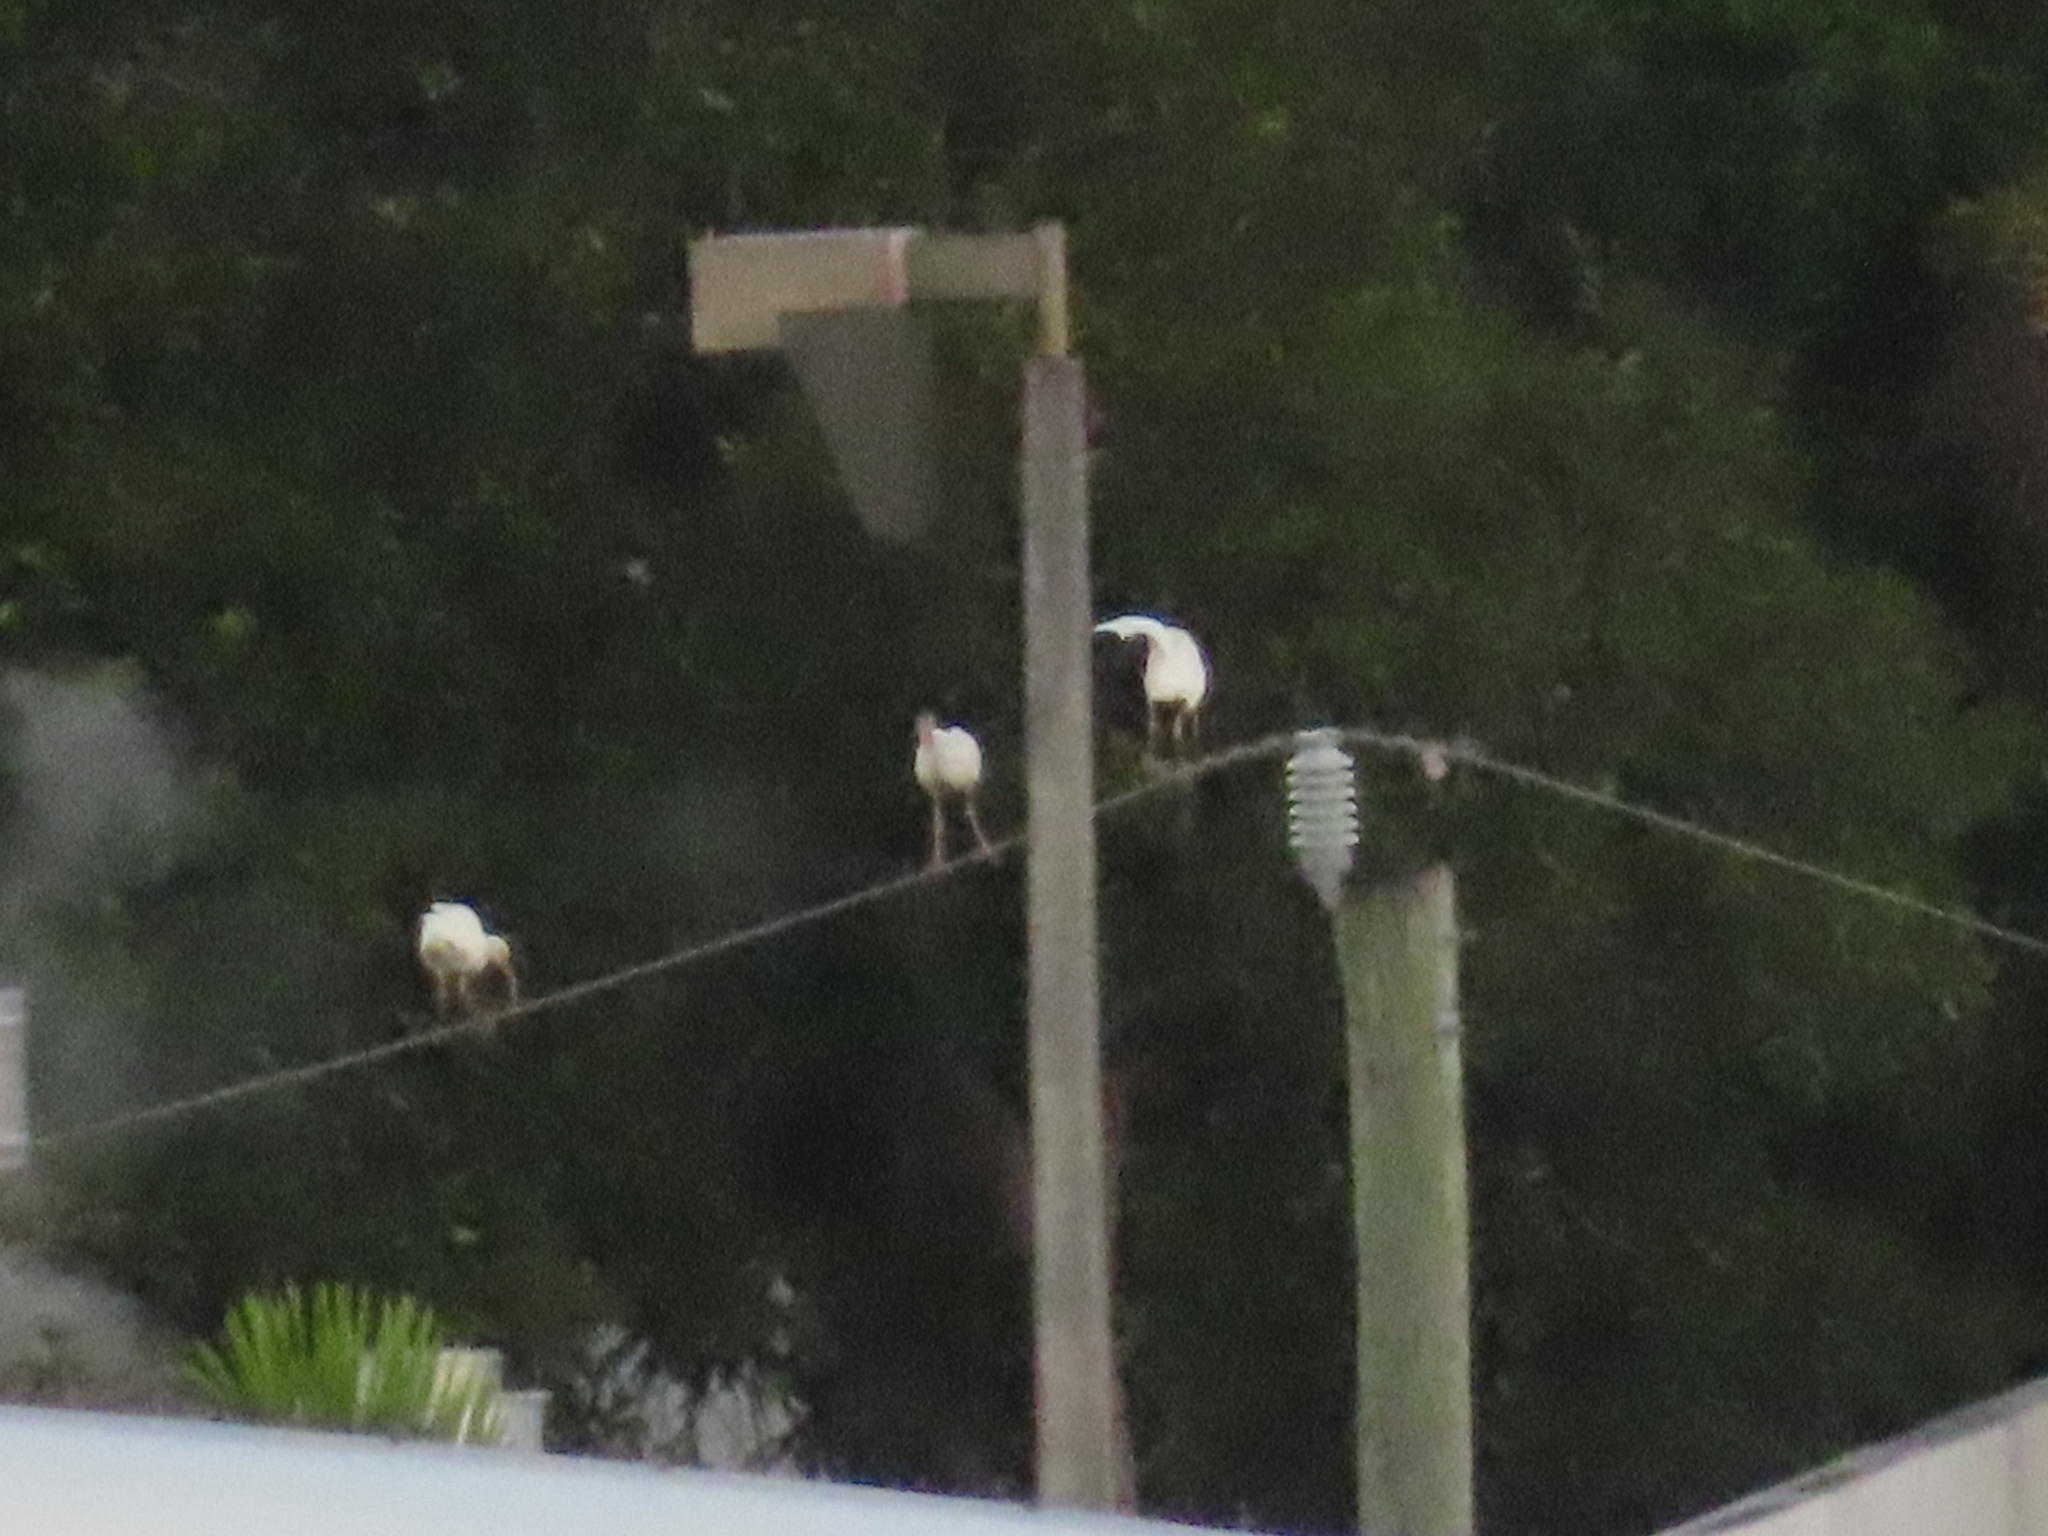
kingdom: Animalia
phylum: Chordata
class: Aves
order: Pelecaniformes
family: Threskiornithidae
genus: Eudocimus
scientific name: Eudocimus albus
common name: White ibis
